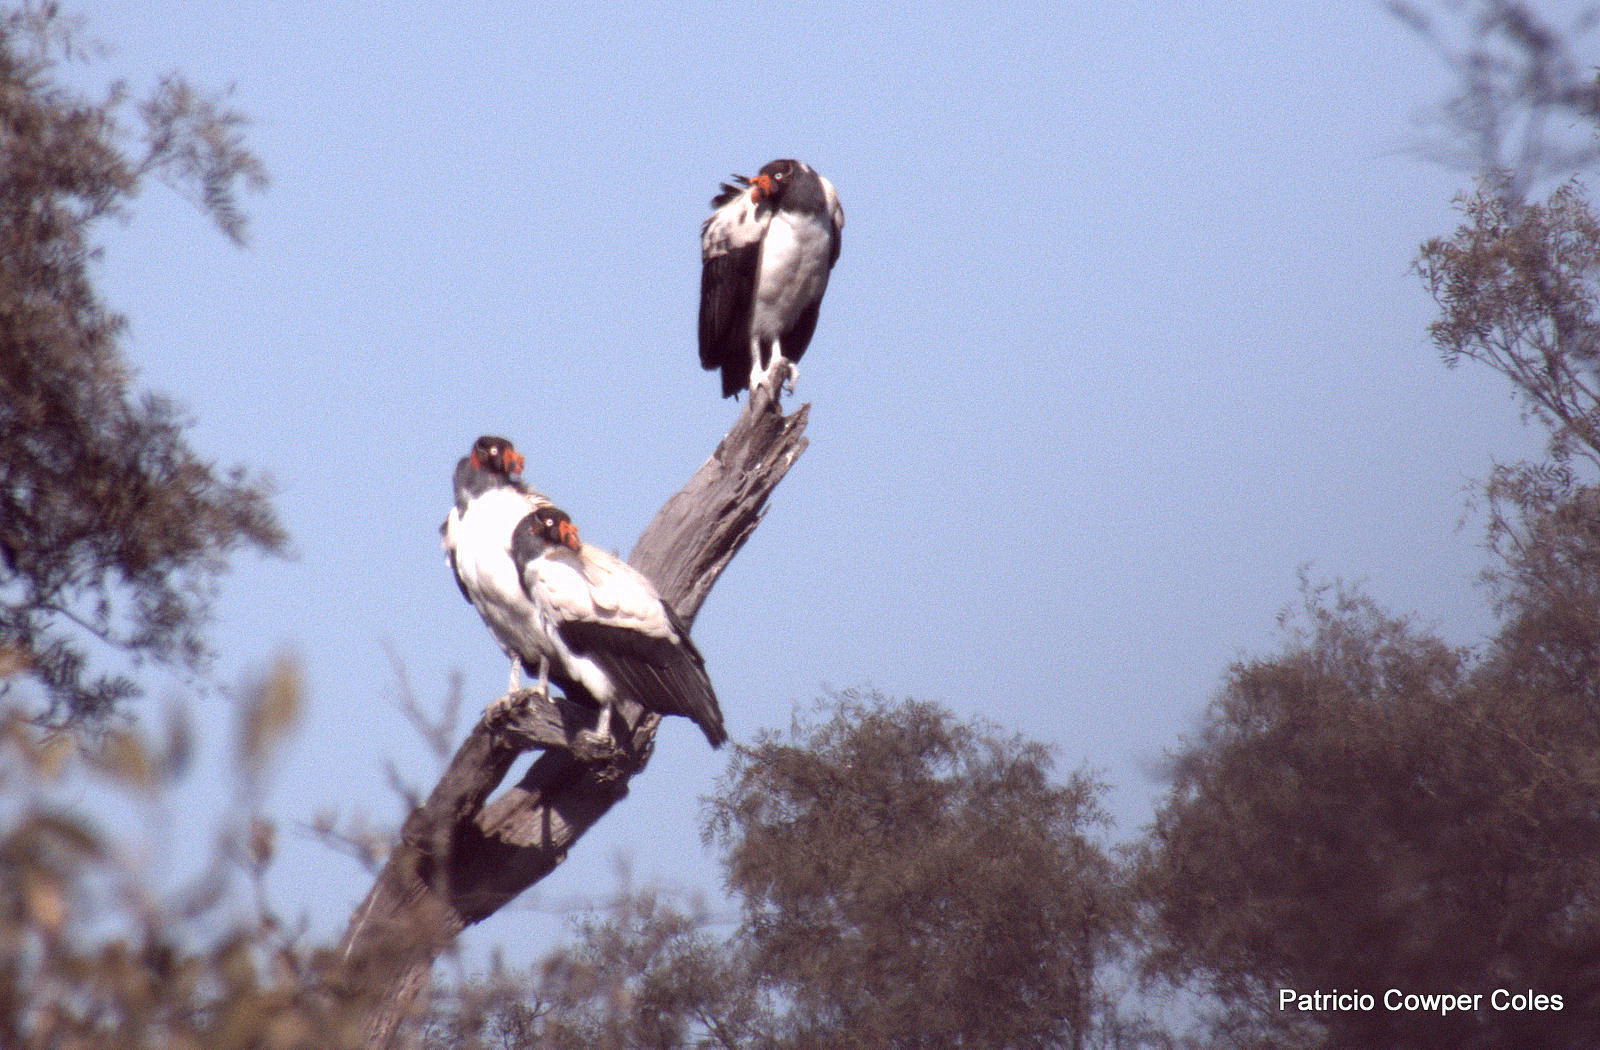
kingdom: Animalia
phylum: Chordata
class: Aves
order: Accipitriformes
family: Cathartidae
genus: Sarcoramphus
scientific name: Sarcoramphus papa
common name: King vulture
